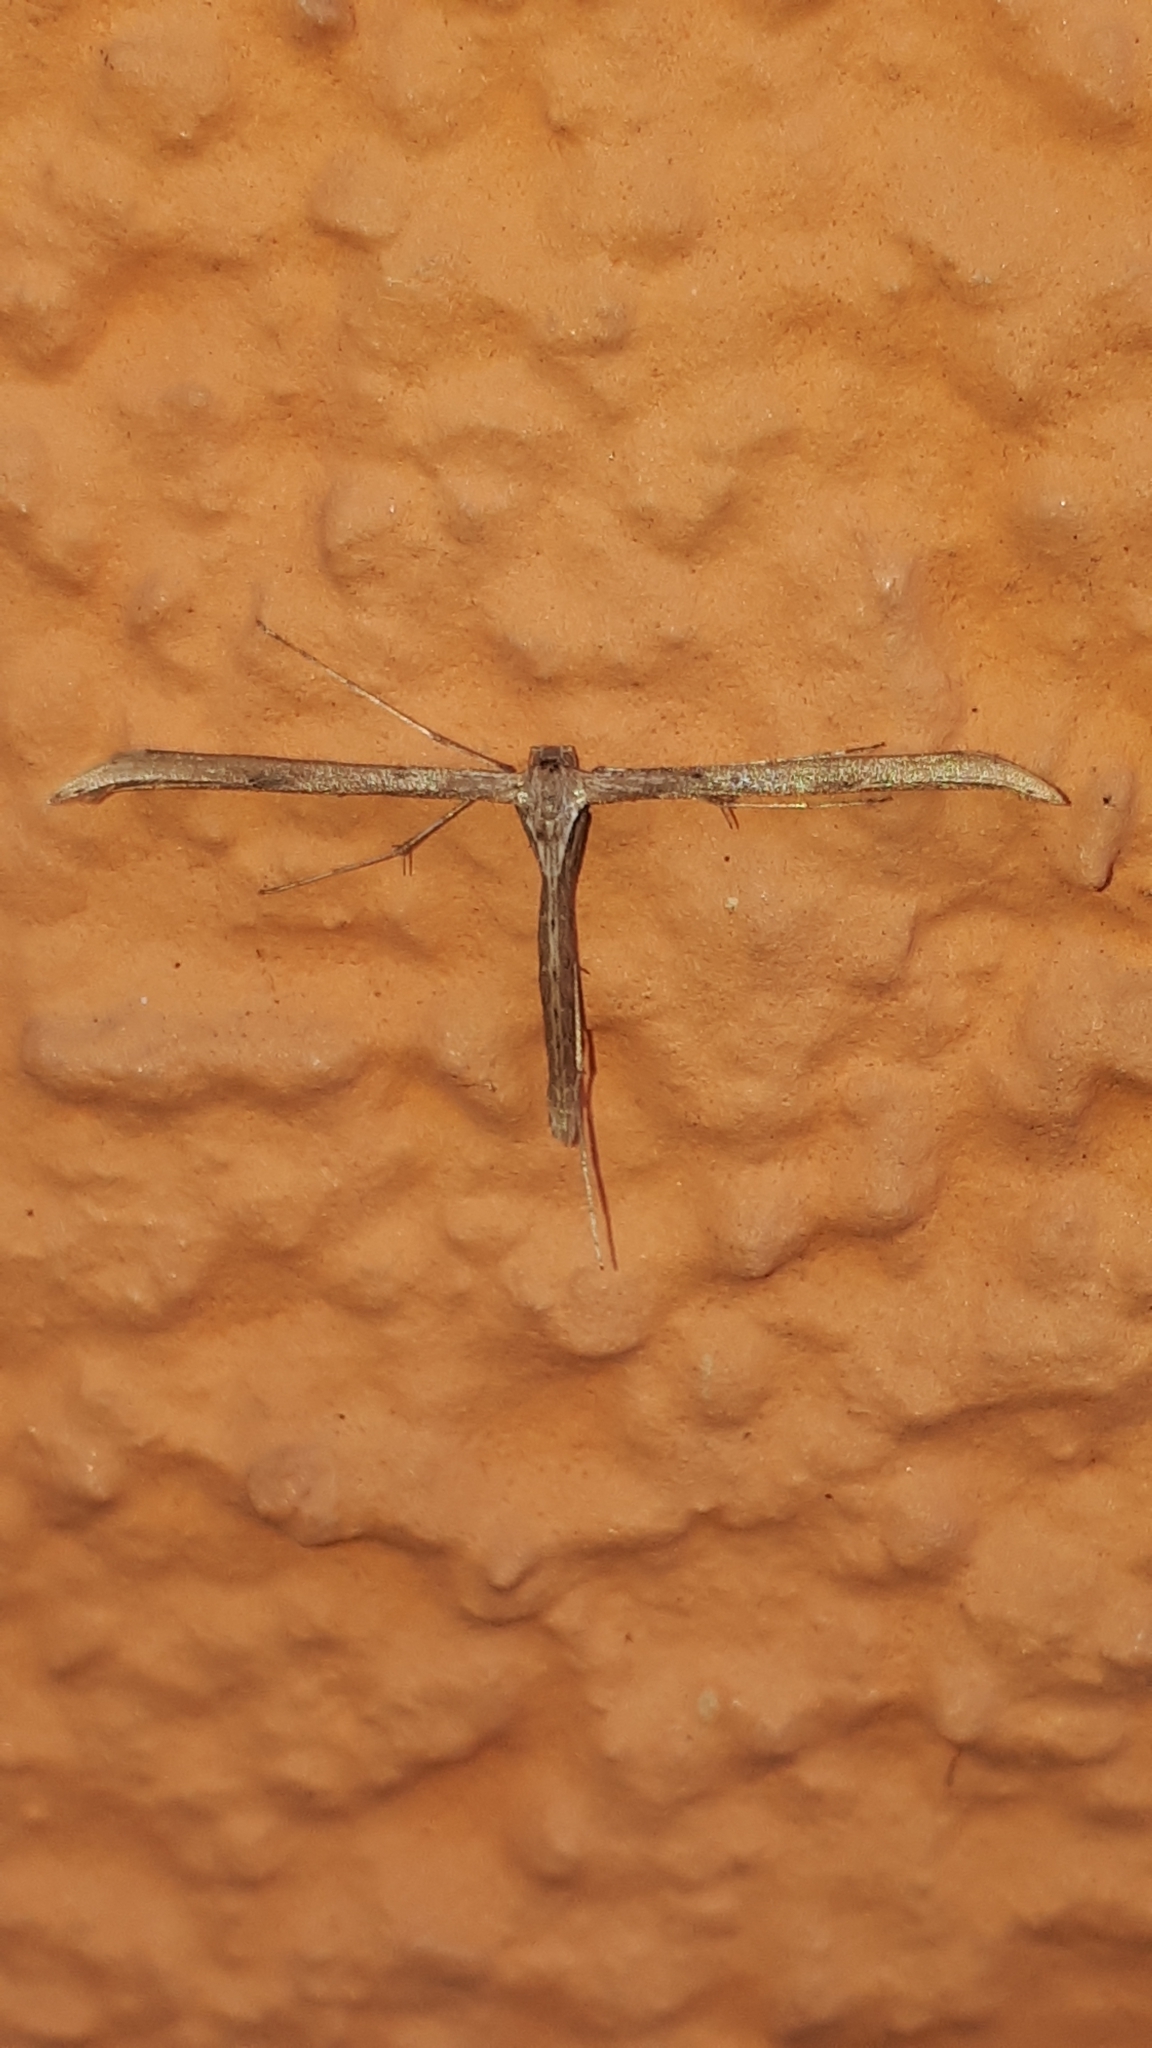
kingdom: Animalia
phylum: Arthropoda
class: Insecta
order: Lepidoptera
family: Pterophoridae
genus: Emmelina
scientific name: Emmelina monodactyla
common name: Common plume
